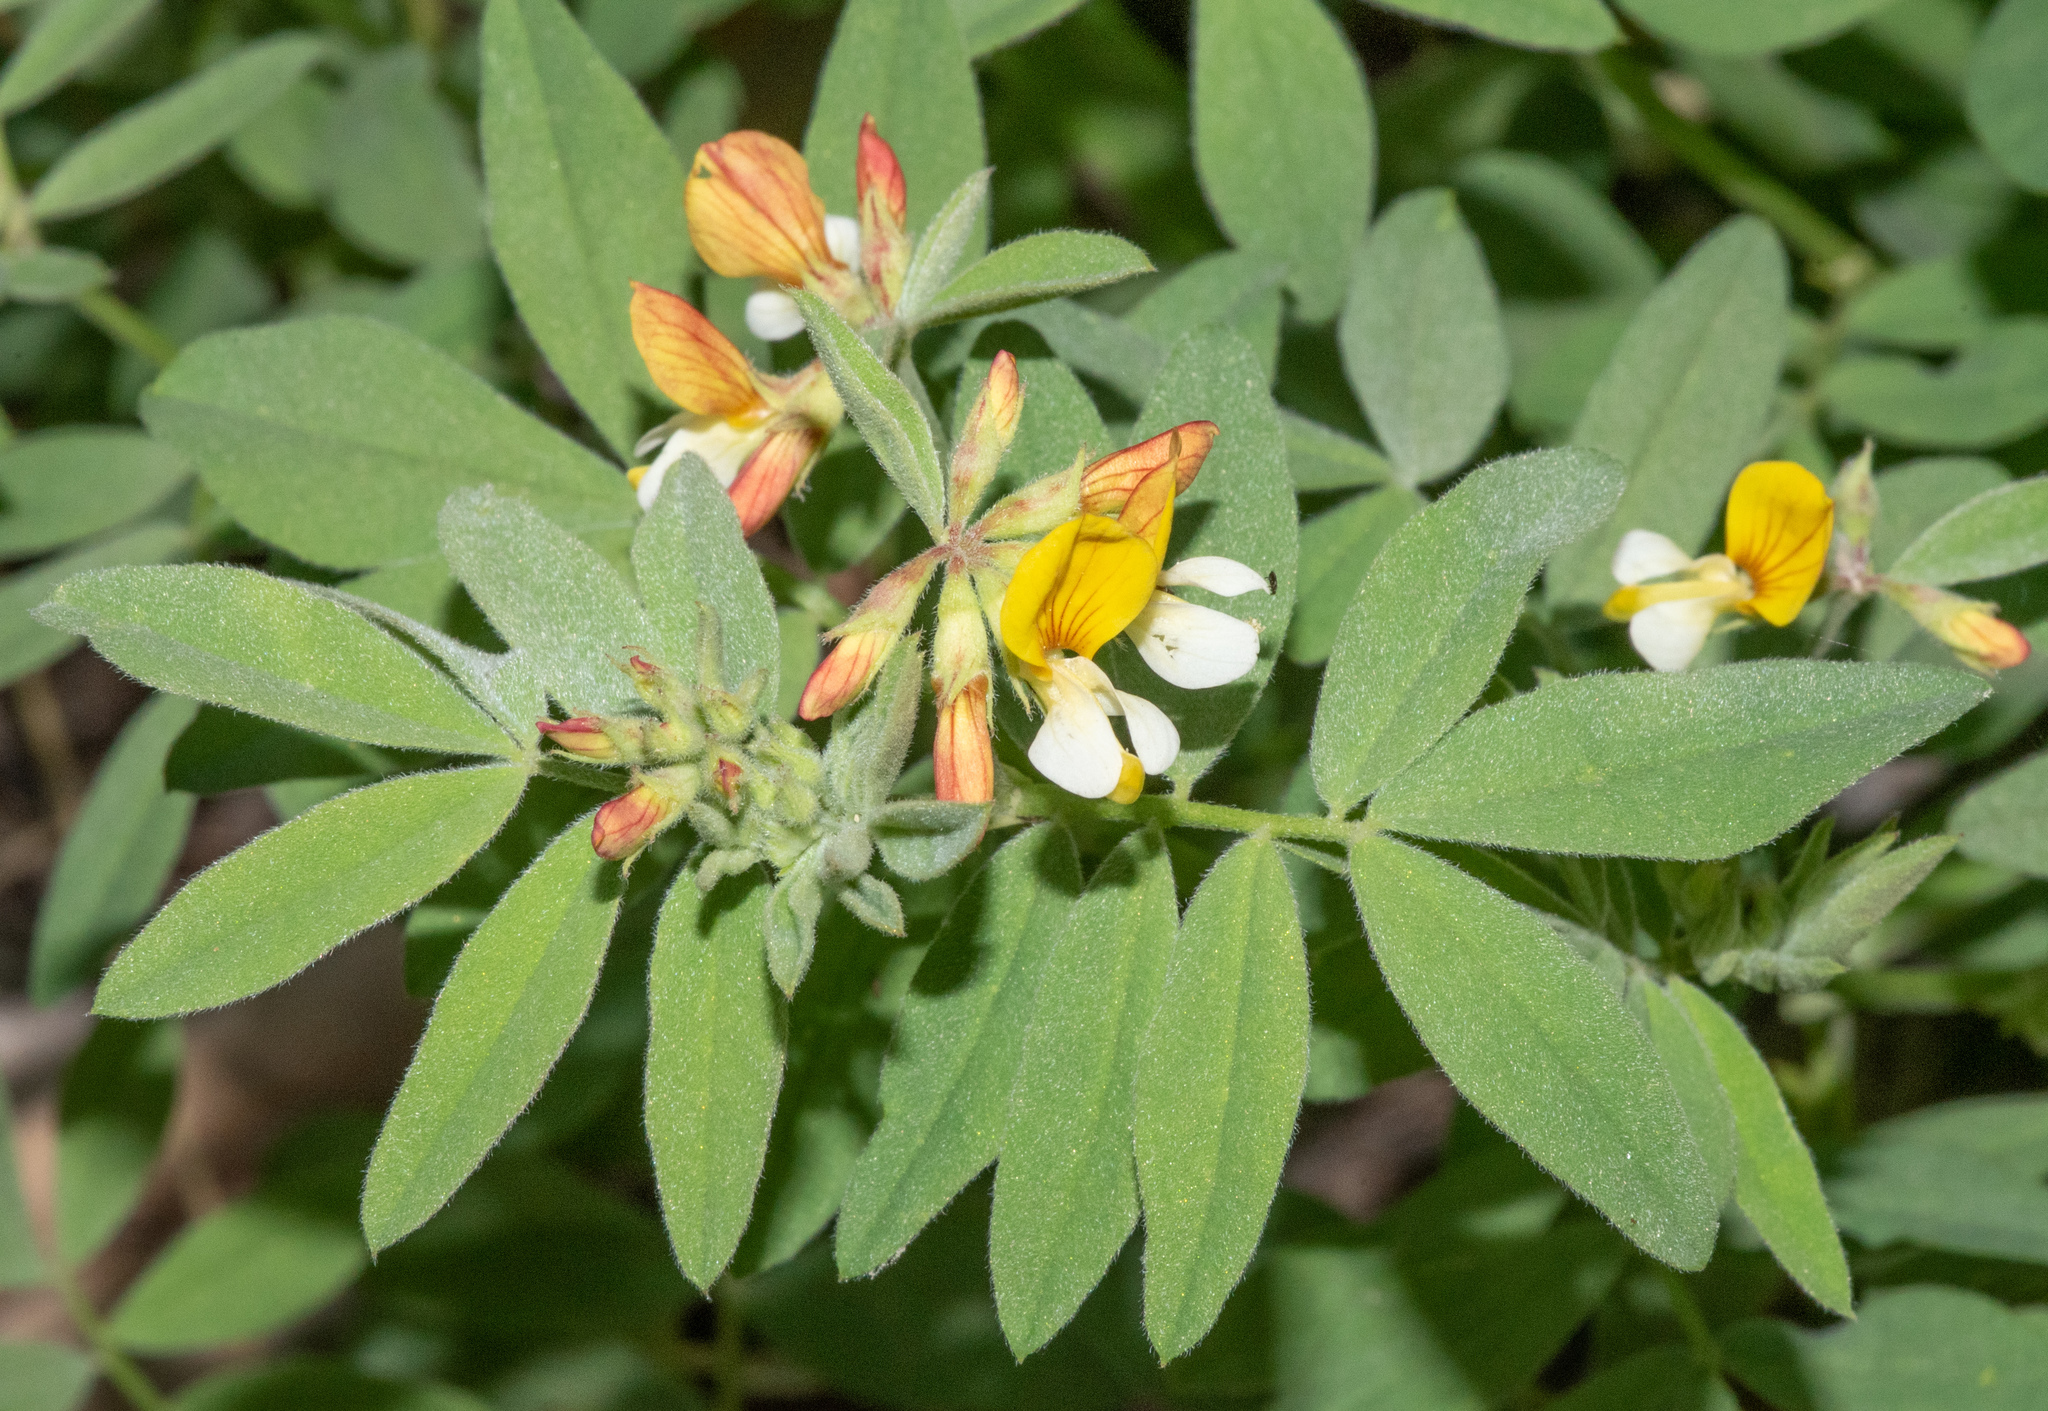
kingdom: Plantae
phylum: Tracheophyta
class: Magnoliopsida
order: Fabales
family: Fabaceae
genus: Hosackia
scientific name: Hosackia oblongifolia
